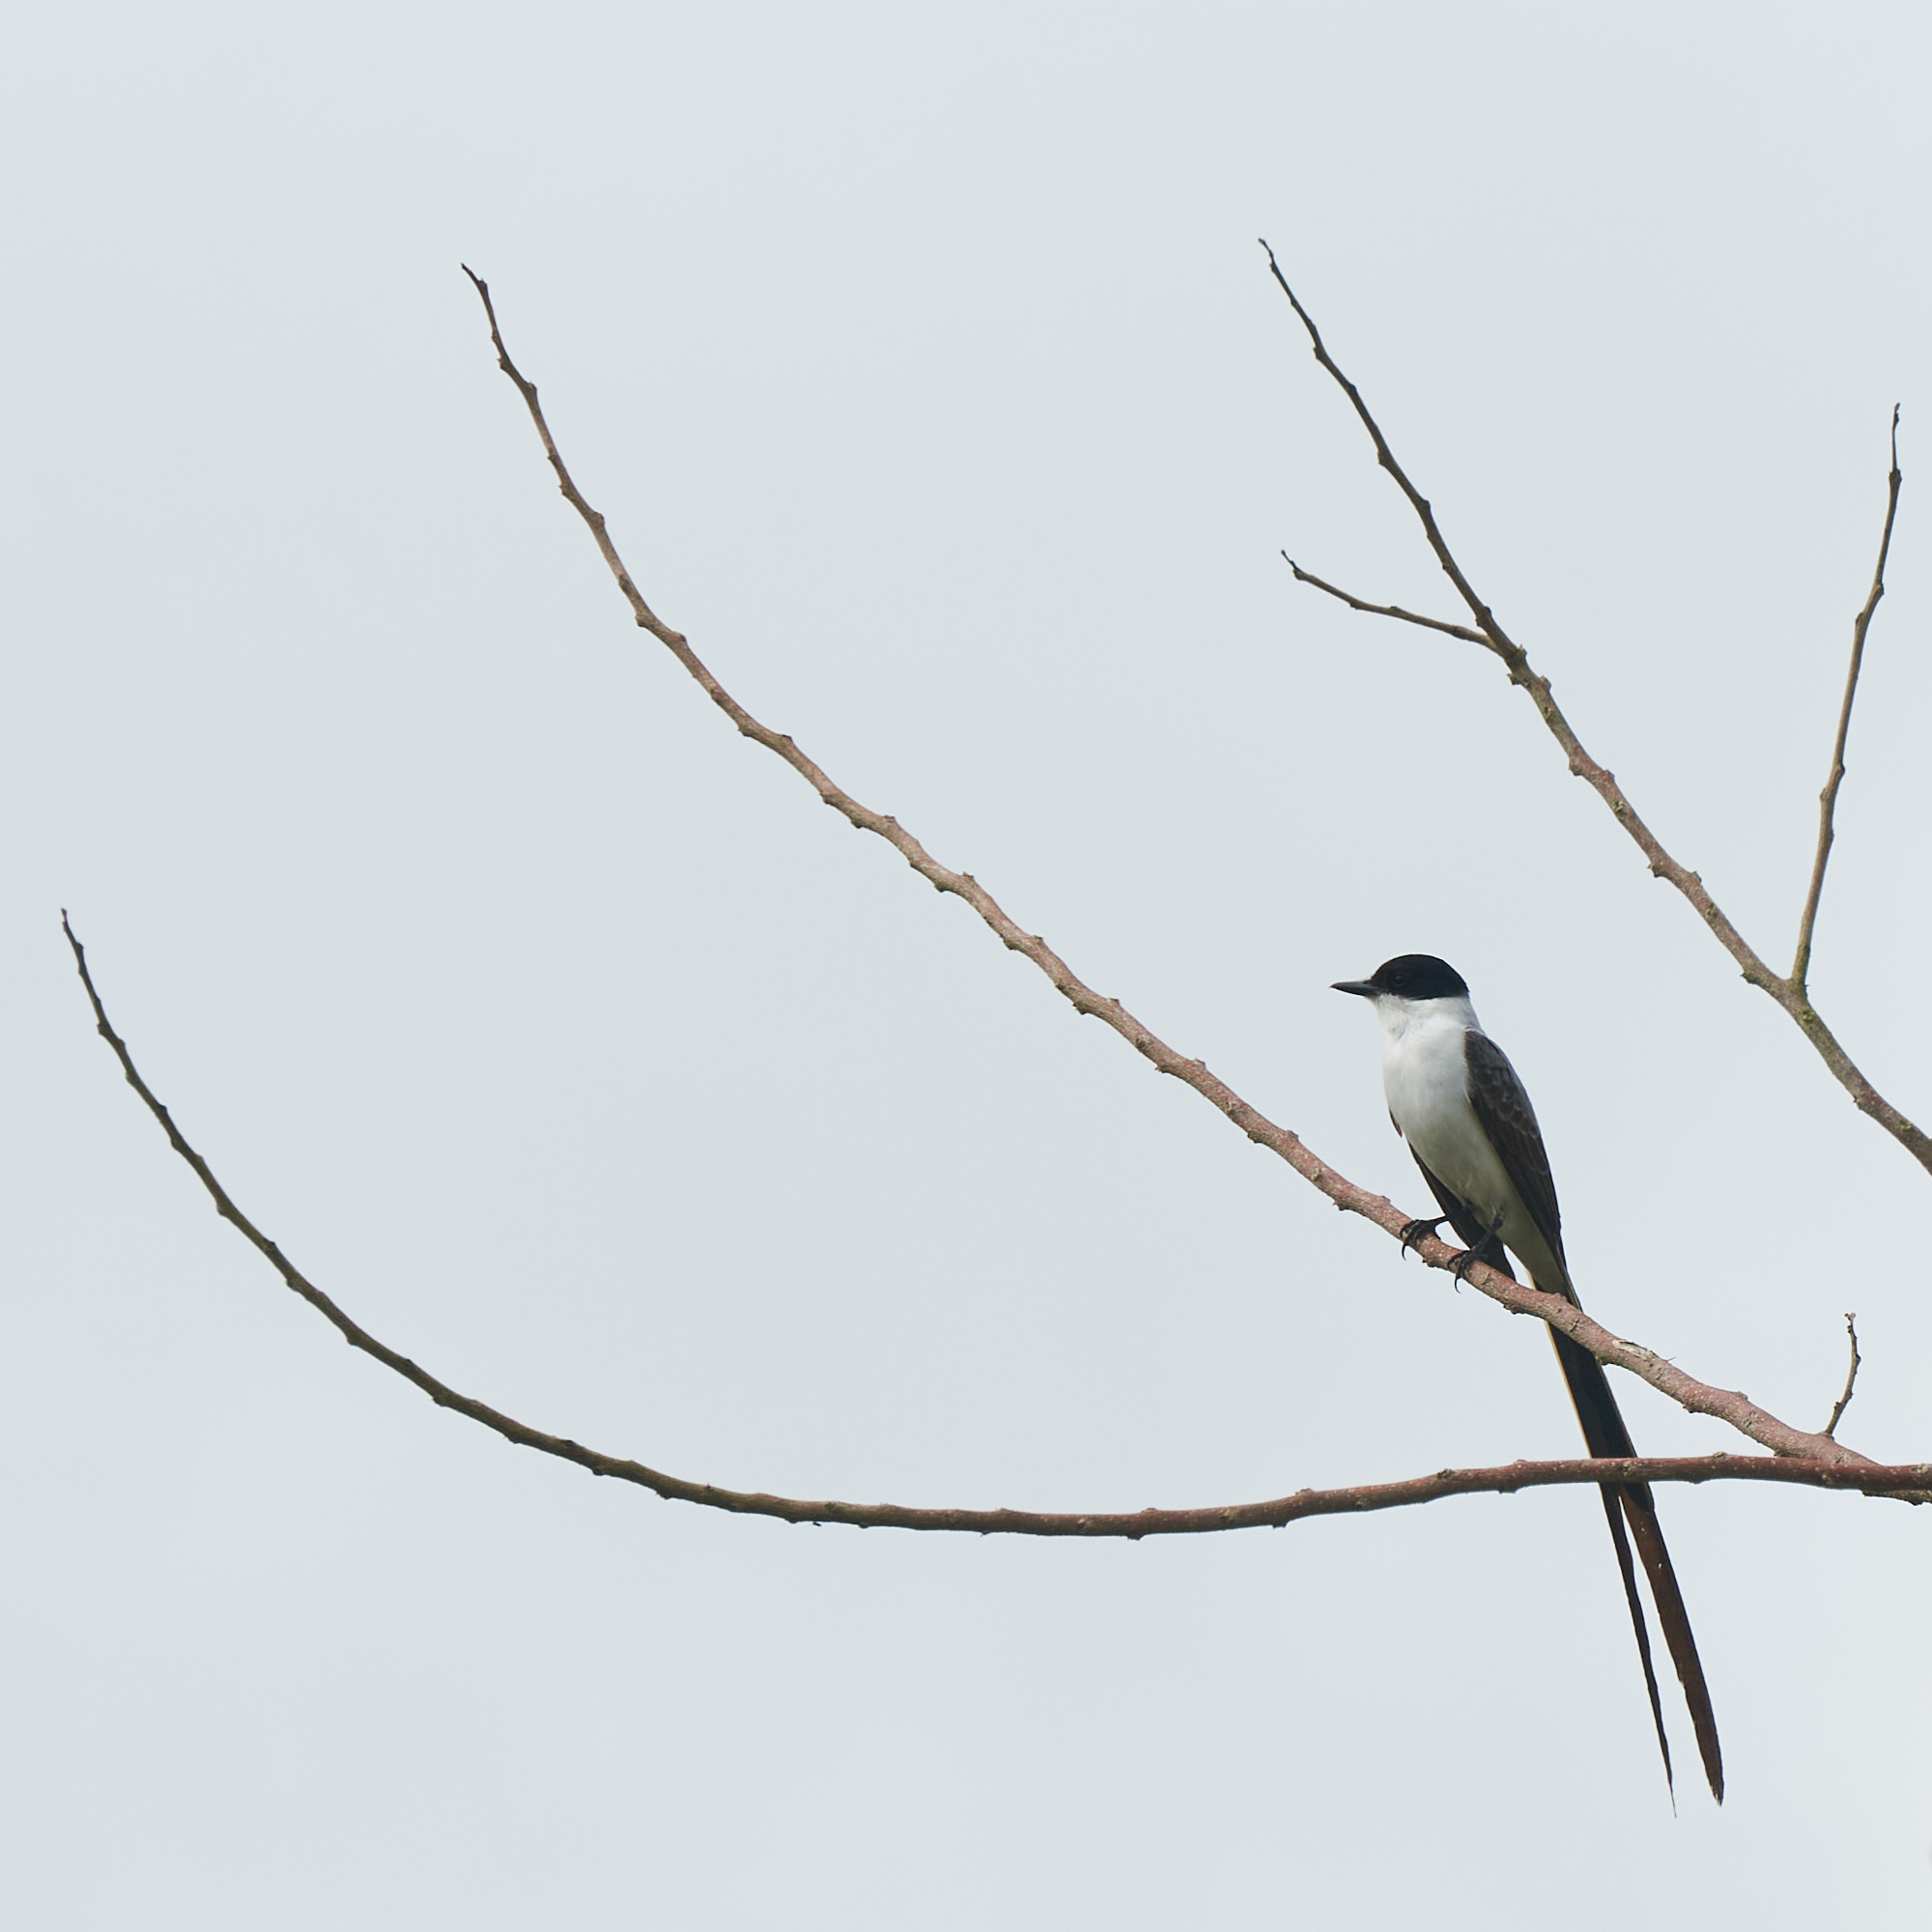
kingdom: Animalia
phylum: Chordata
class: Aves
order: Passeriformes
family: Tyrannidae
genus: Tyrannus
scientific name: Tyrannus savana
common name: Fork-tailed flycatcher
